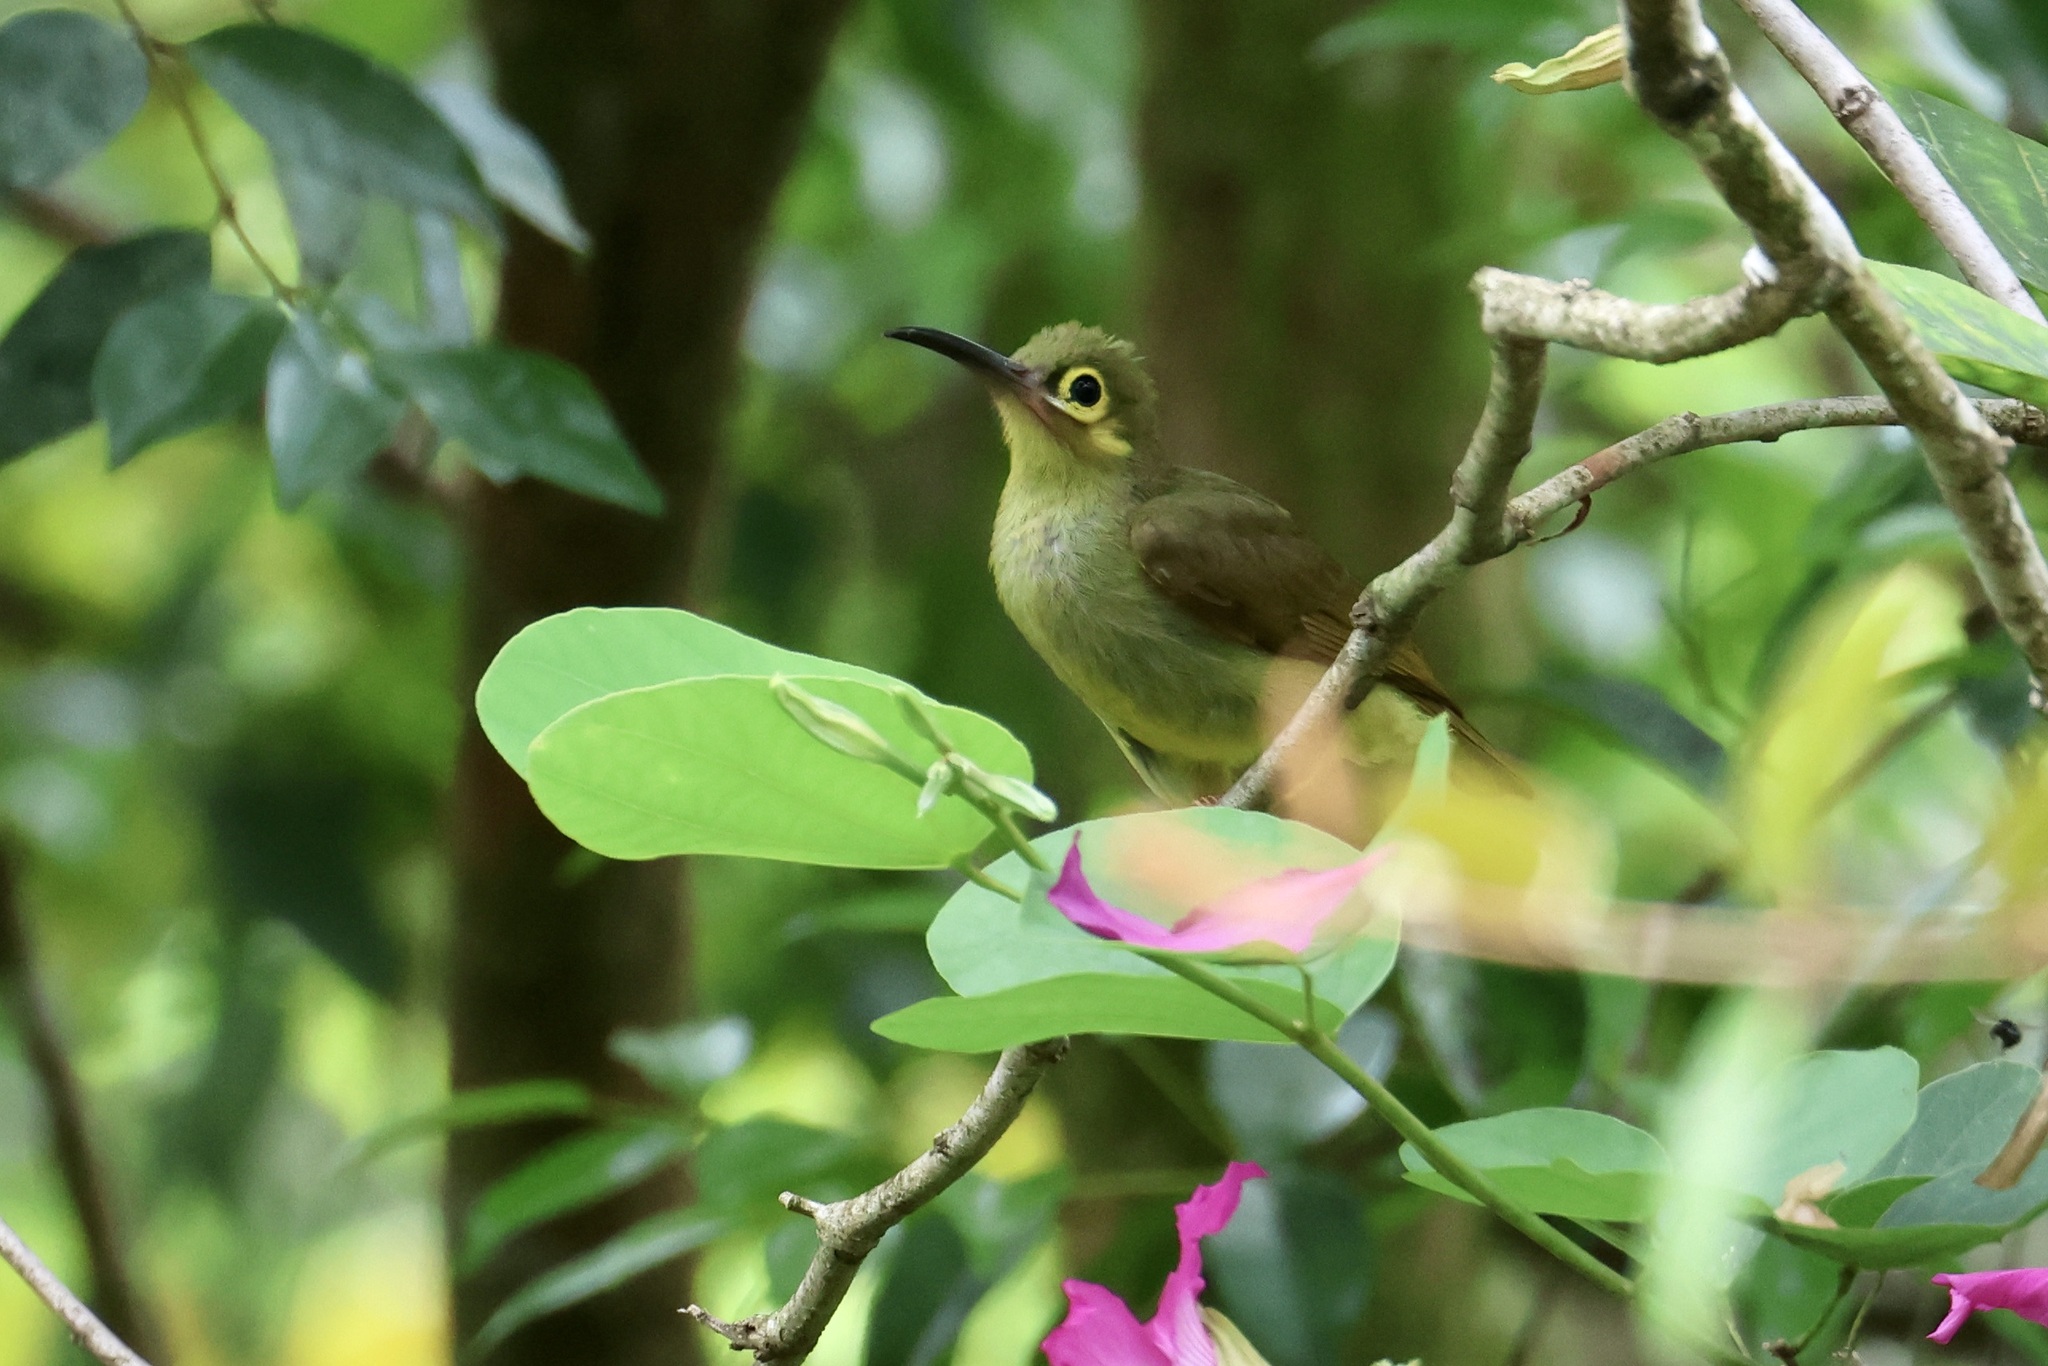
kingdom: Animalia
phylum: Chordata
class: Aves
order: Passeriformes
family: Nectariniidae
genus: Arachnothera
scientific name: Arachnothera flavigaster
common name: Spectacled spiderhunter
